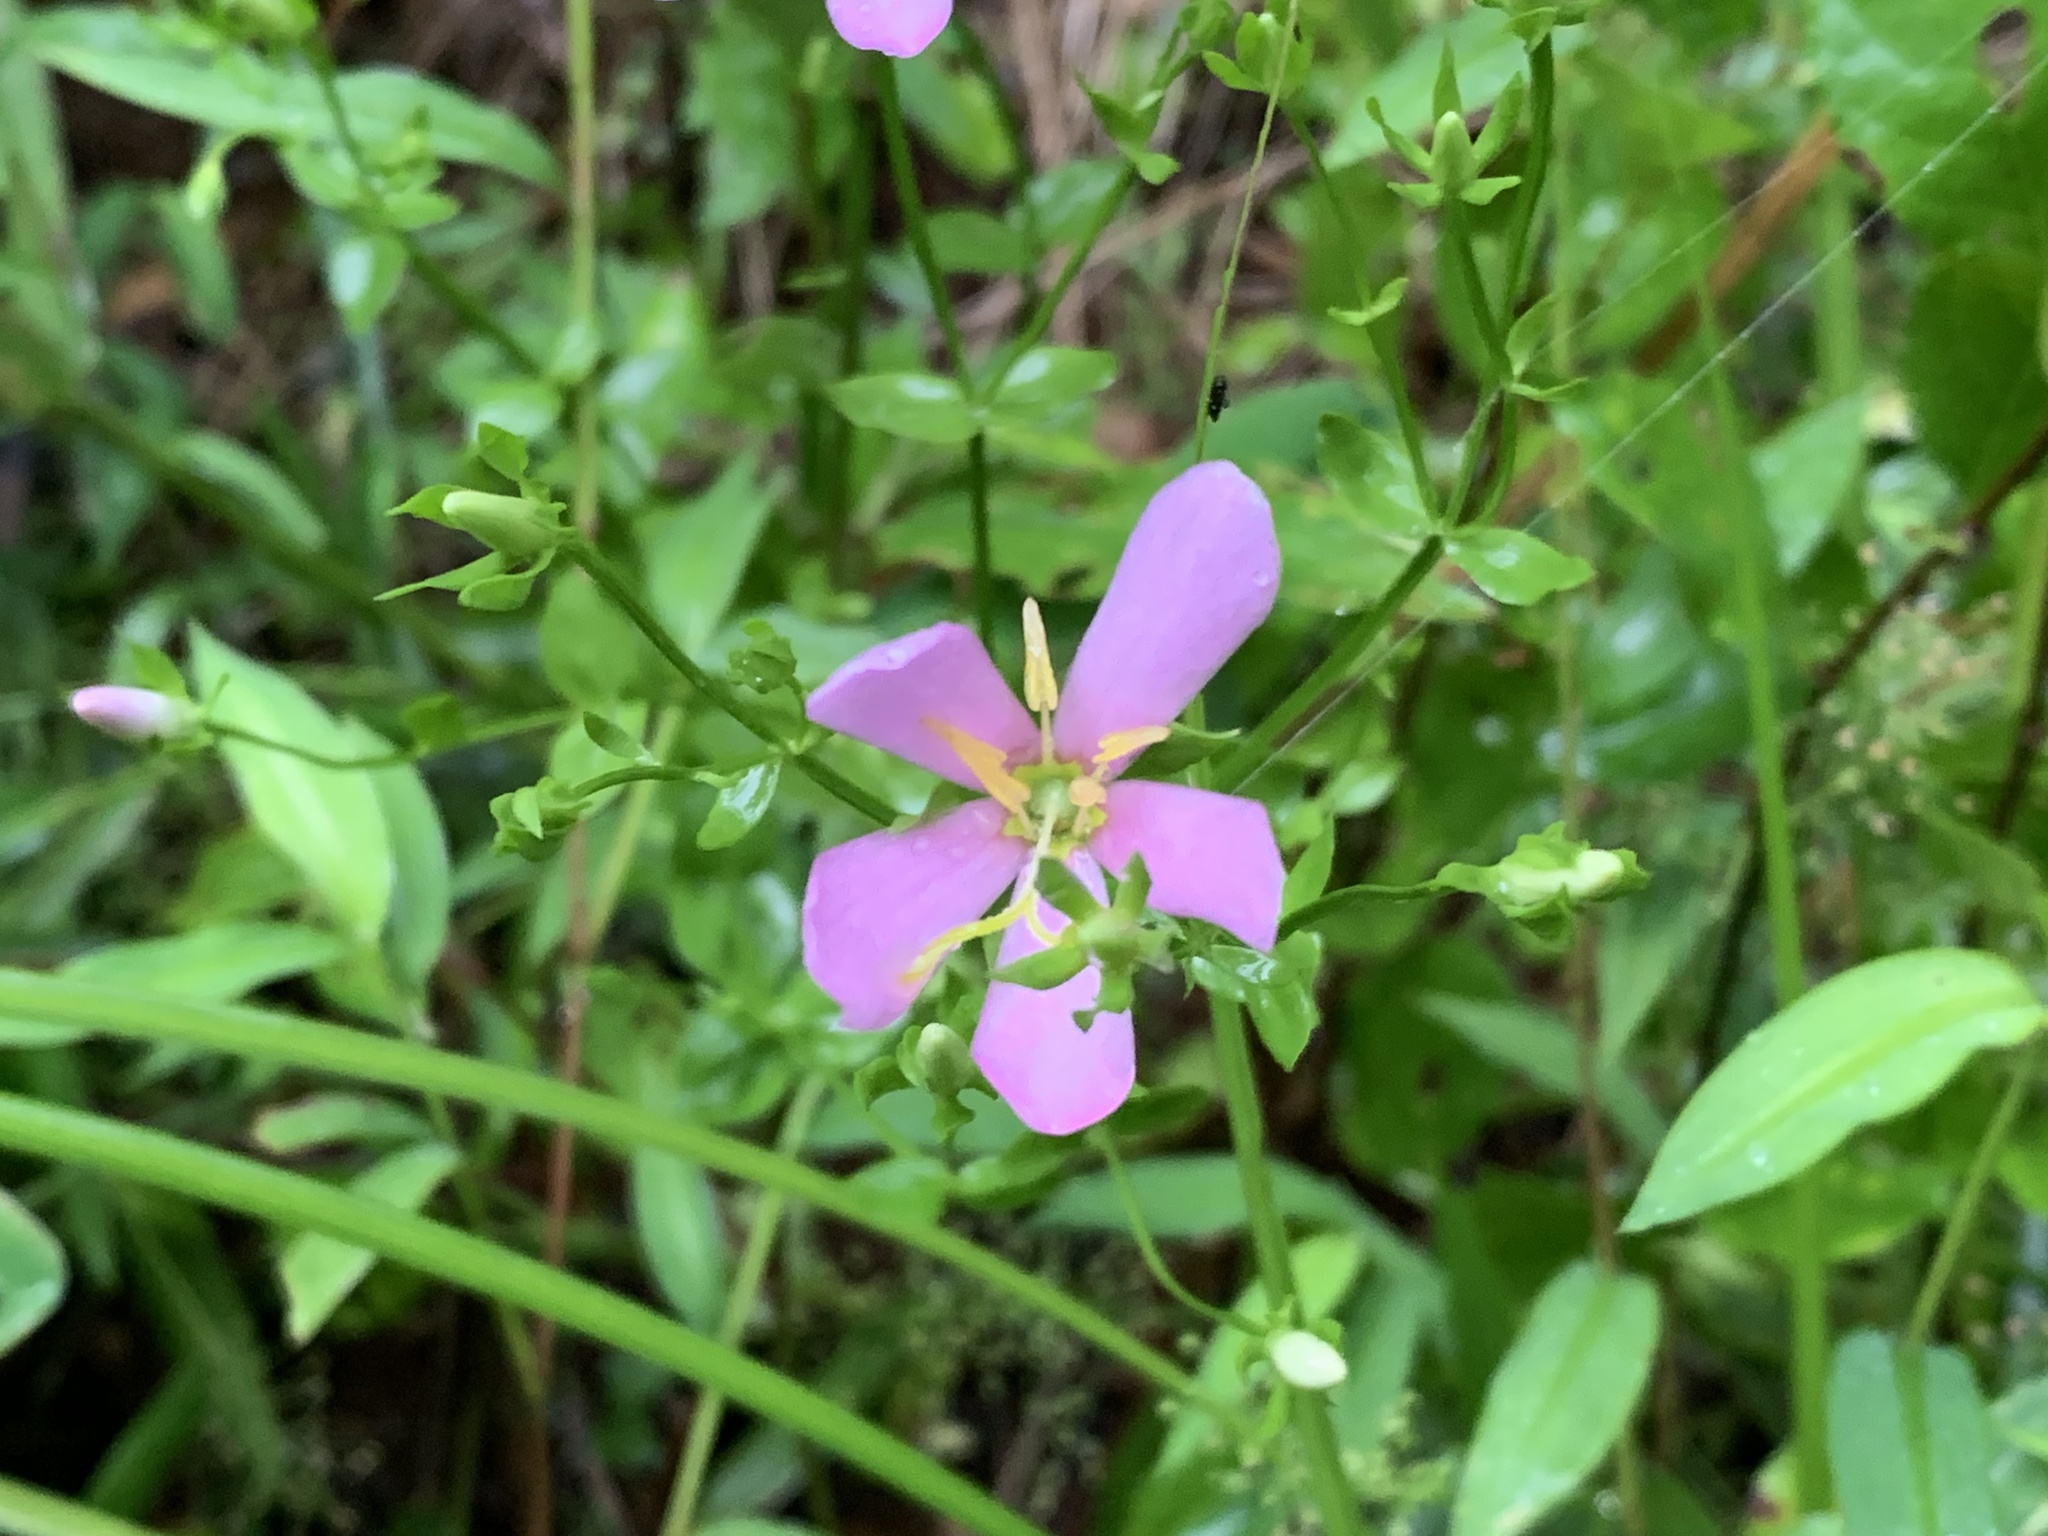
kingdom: Plantae
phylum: Tracheophyta
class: Magnoliopsida
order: Gentianales
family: Gentianaceae
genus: Sabatia
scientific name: Sabatia angularis
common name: Rose-pink
